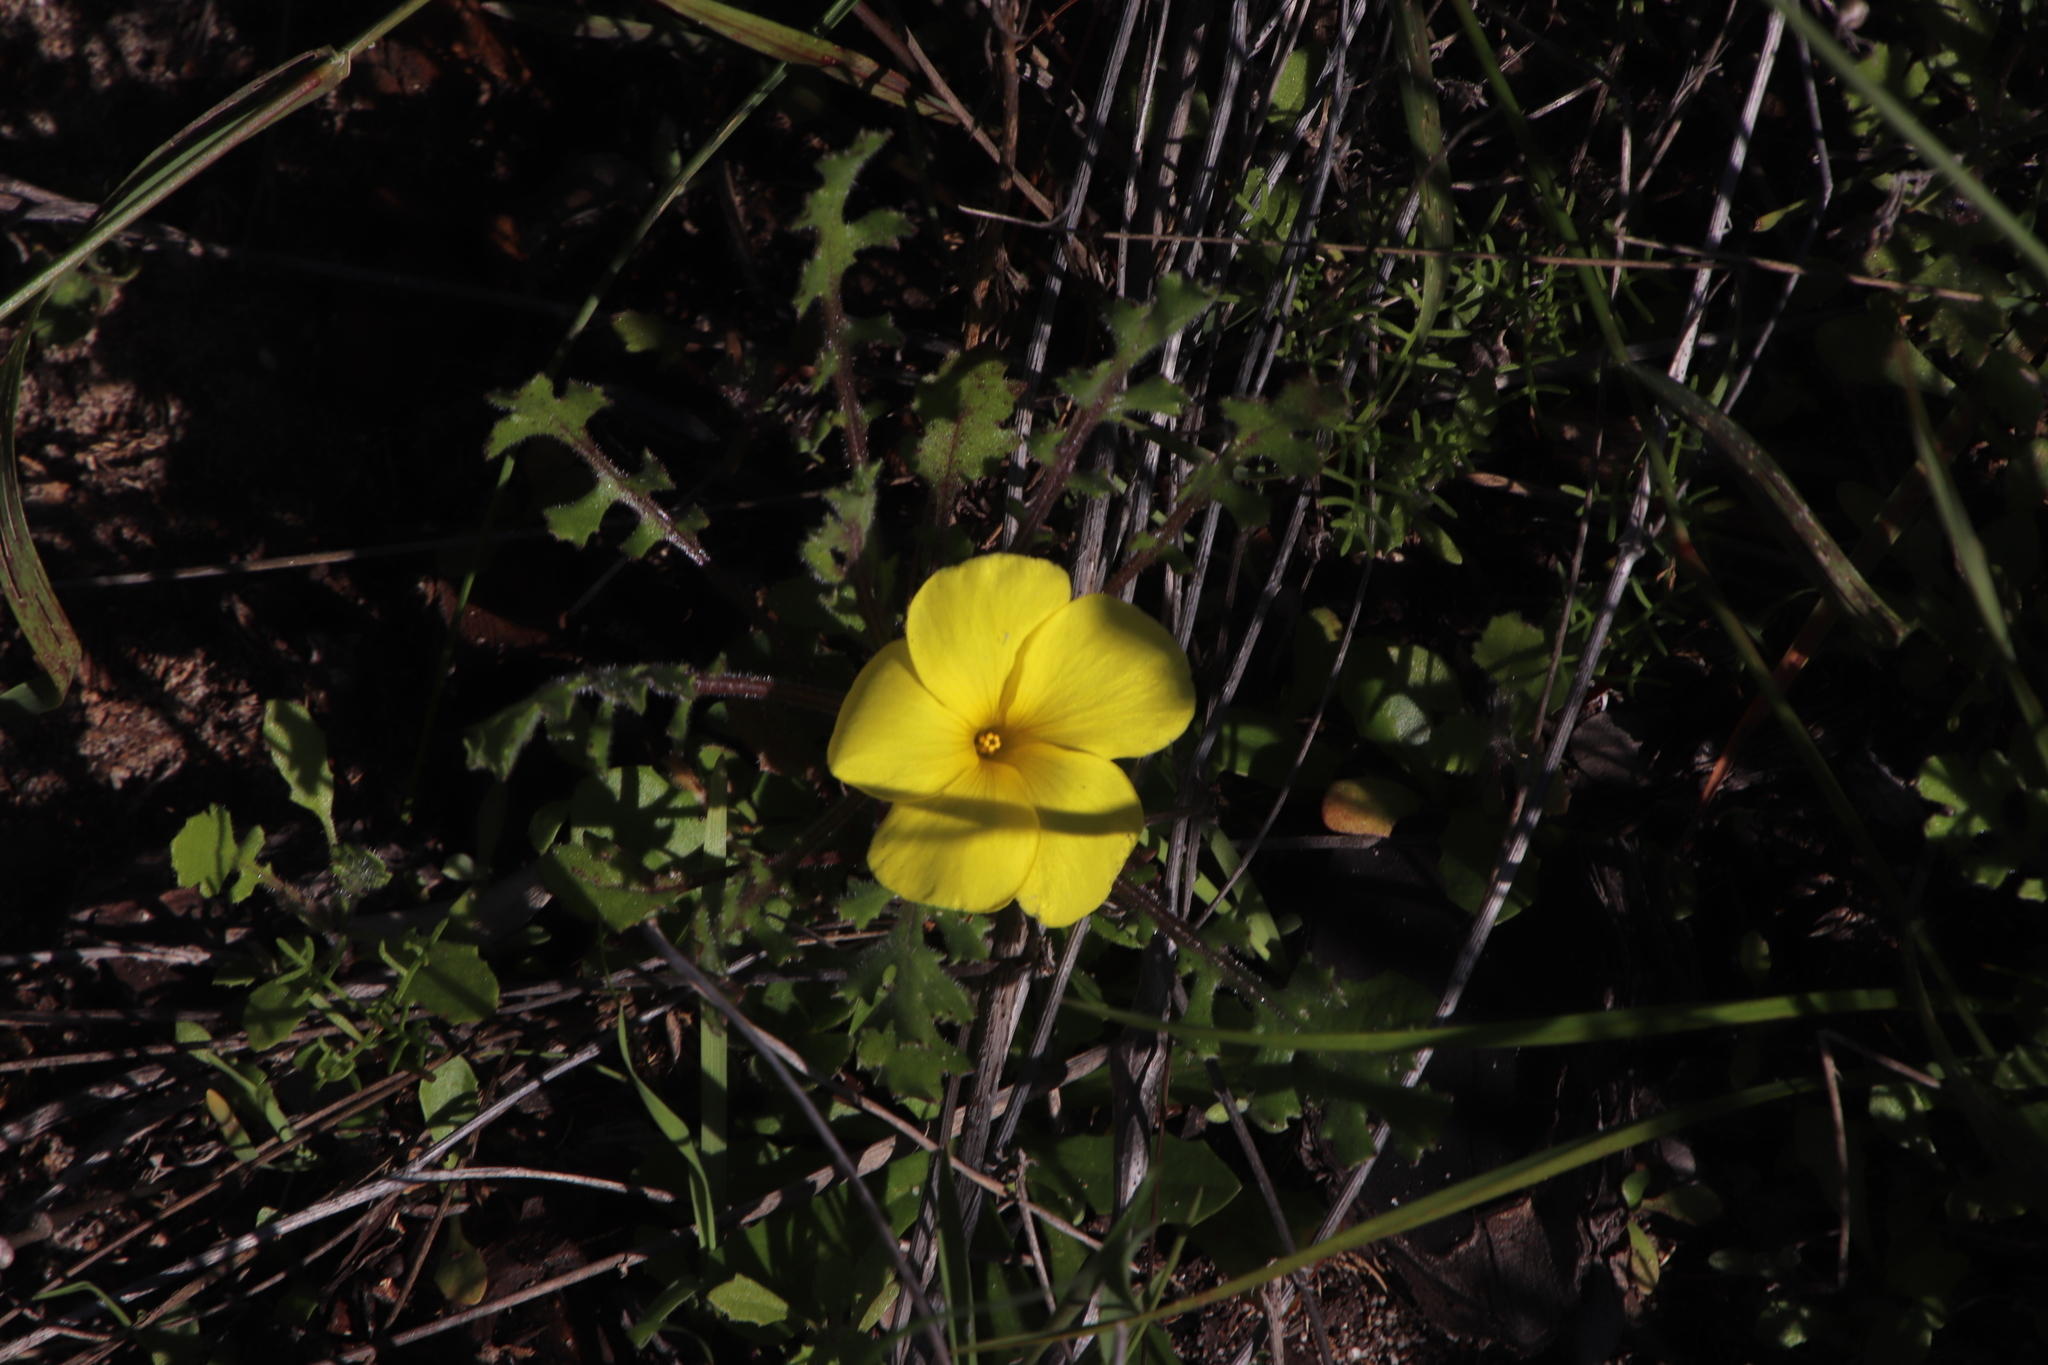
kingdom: Plantae
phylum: Tracheophyta
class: Magnoliopsida
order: Oxalidales
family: Oxalidaceae
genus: Oxalis
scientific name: Oxalis luteola
